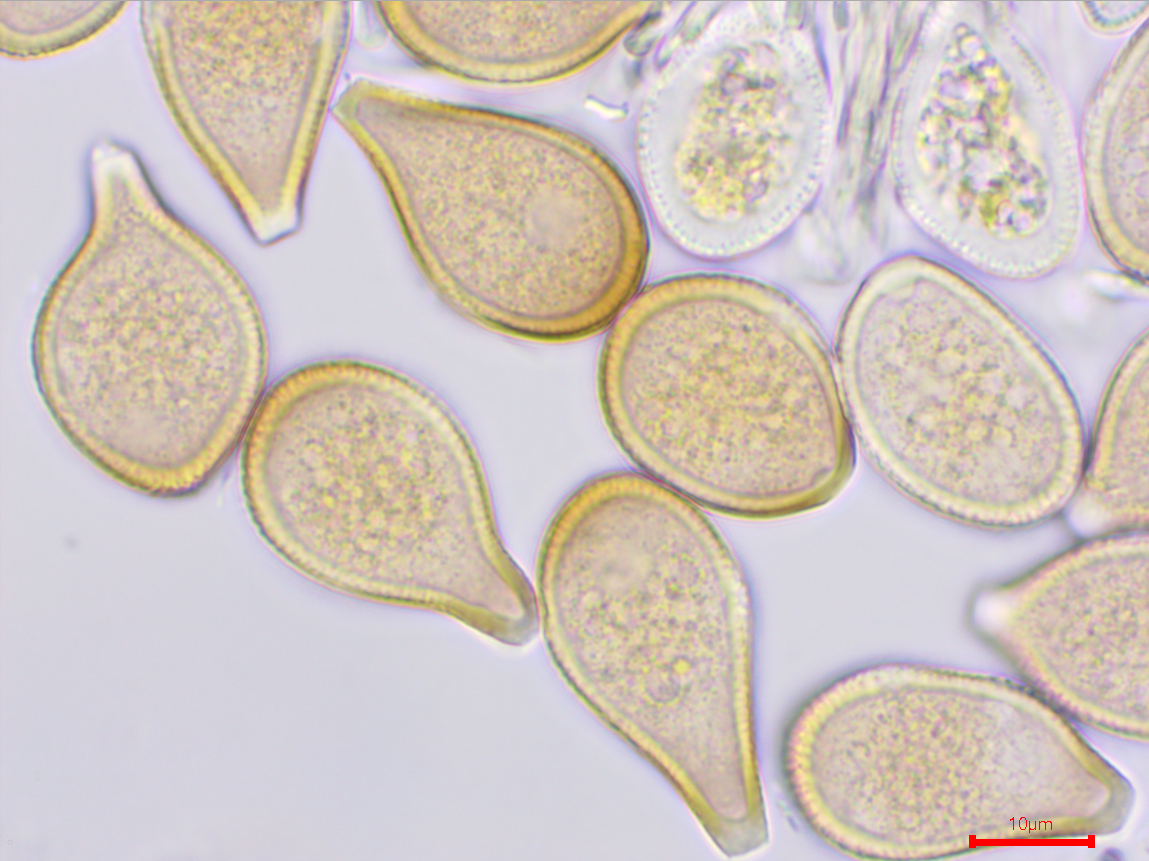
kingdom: Fungi
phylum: Basidiomycota
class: Pucciniomycetes
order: Pucciniales
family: Pucciniaceae
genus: Cumminsiella
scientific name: Cumminsiella mirabilissima
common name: Mahonia rust
